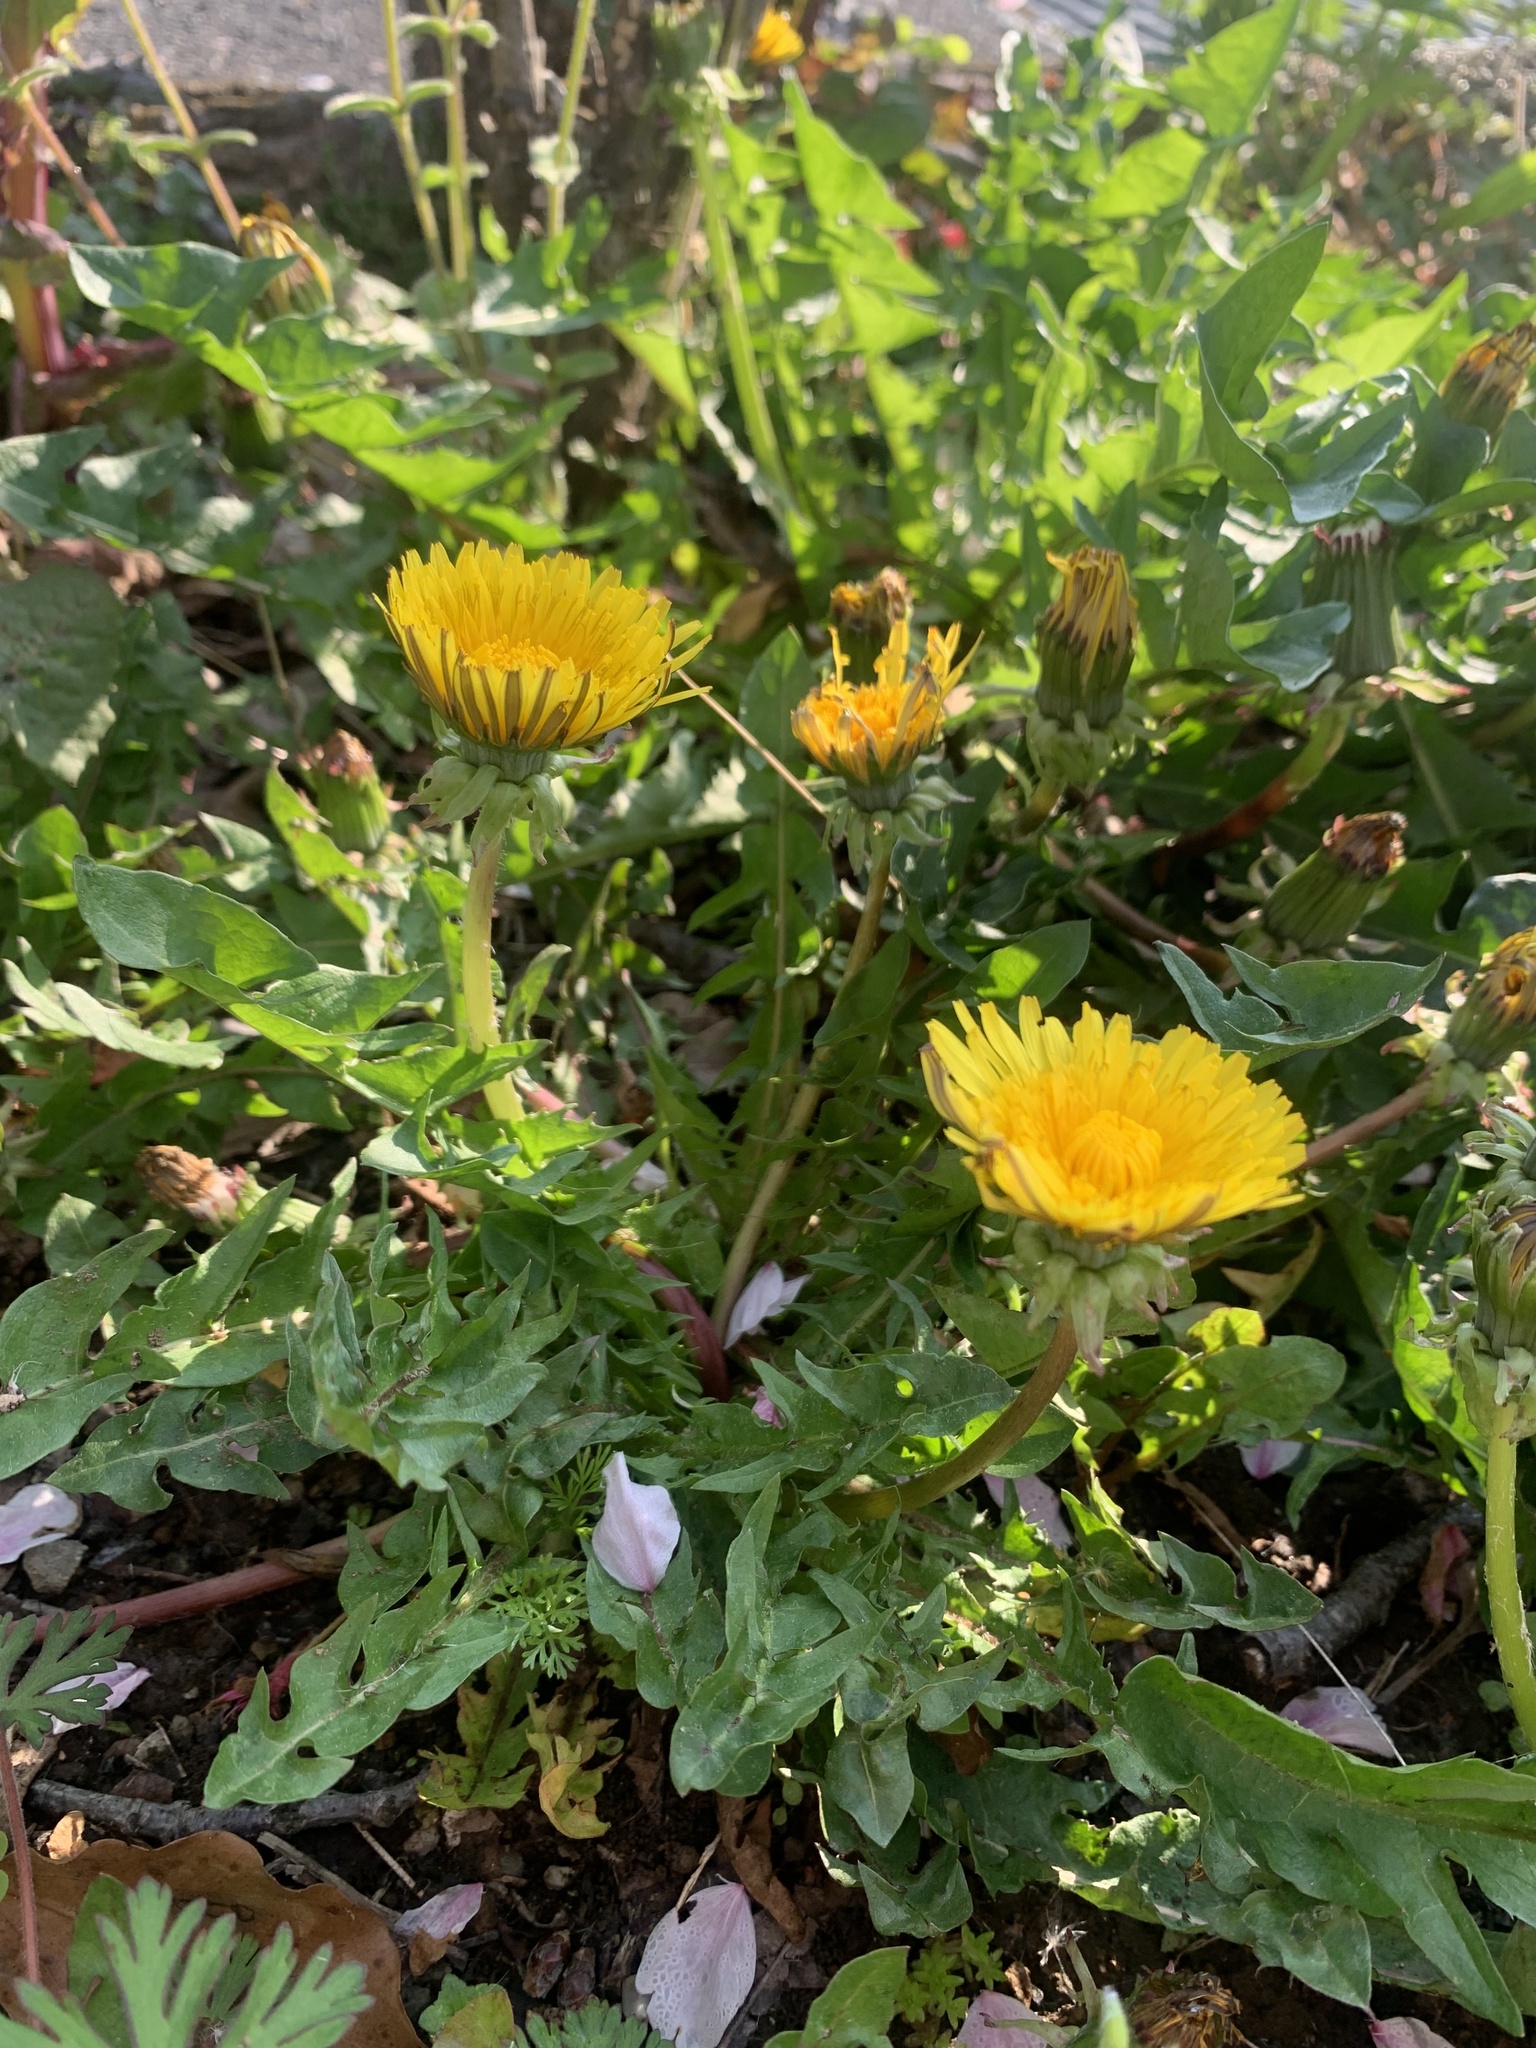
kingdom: Plantae
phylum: Tracheophyta
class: Magnoliopsida
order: Asterales
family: Asteraceae
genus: Taraxacum
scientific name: Taraxacum officinale
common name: Common dandelion
